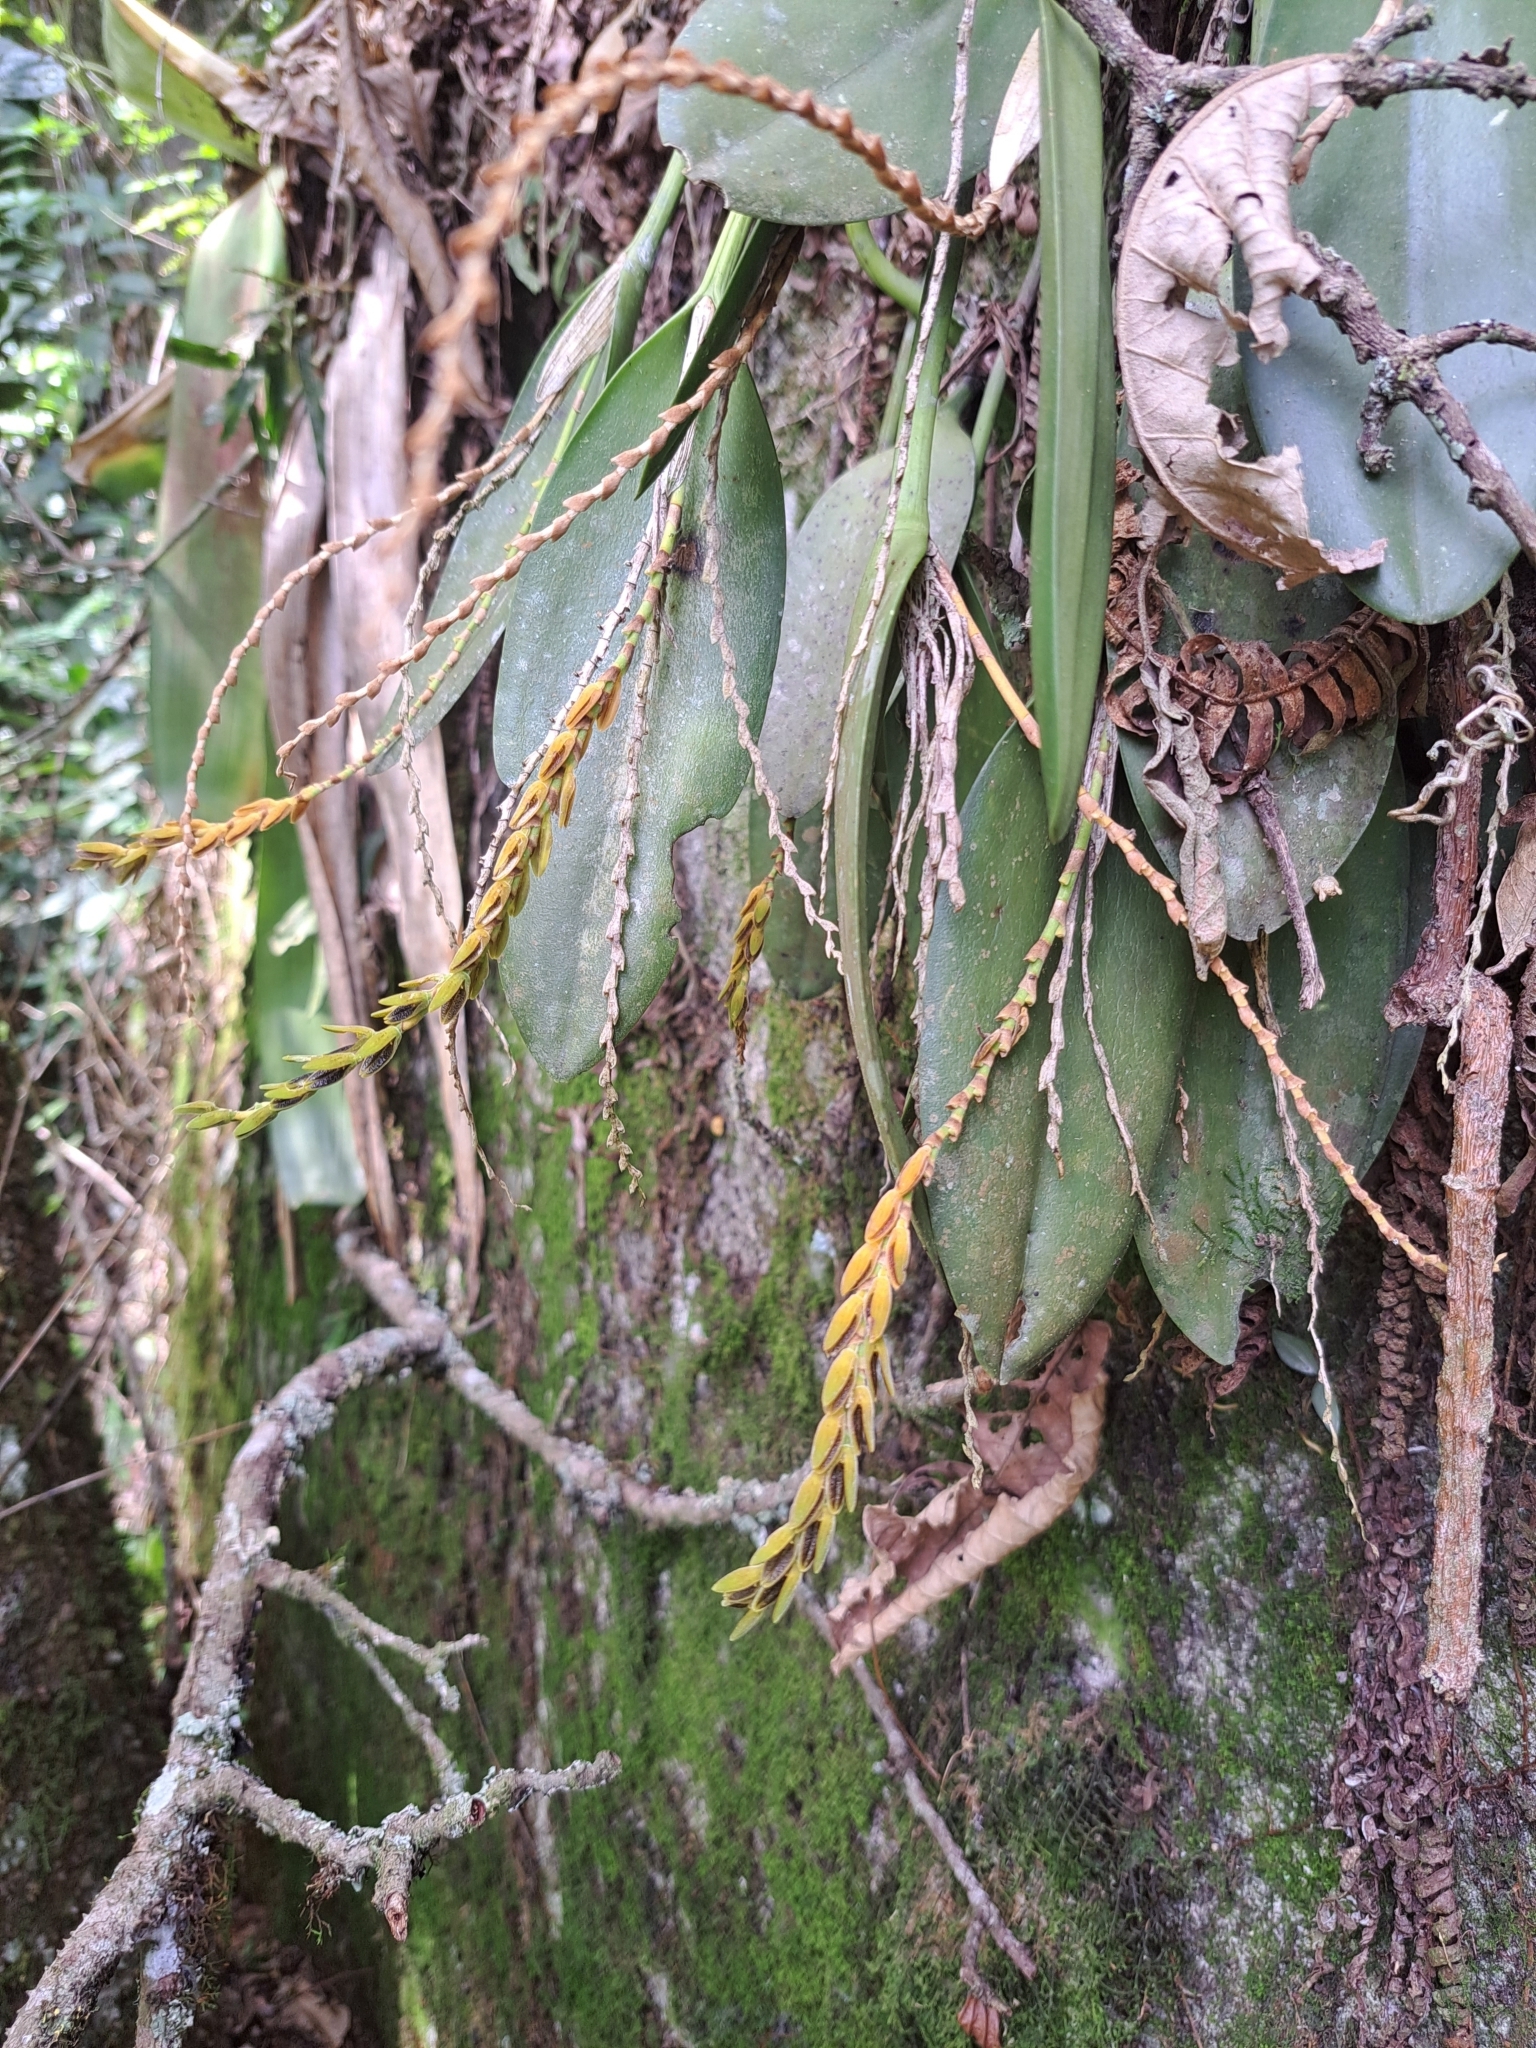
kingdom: Plantae
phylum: Tracheophyta
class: Liliopsida
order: Asparagales
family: Orchidaceae
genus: Acianthera
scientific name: Acianthera saurocephala
